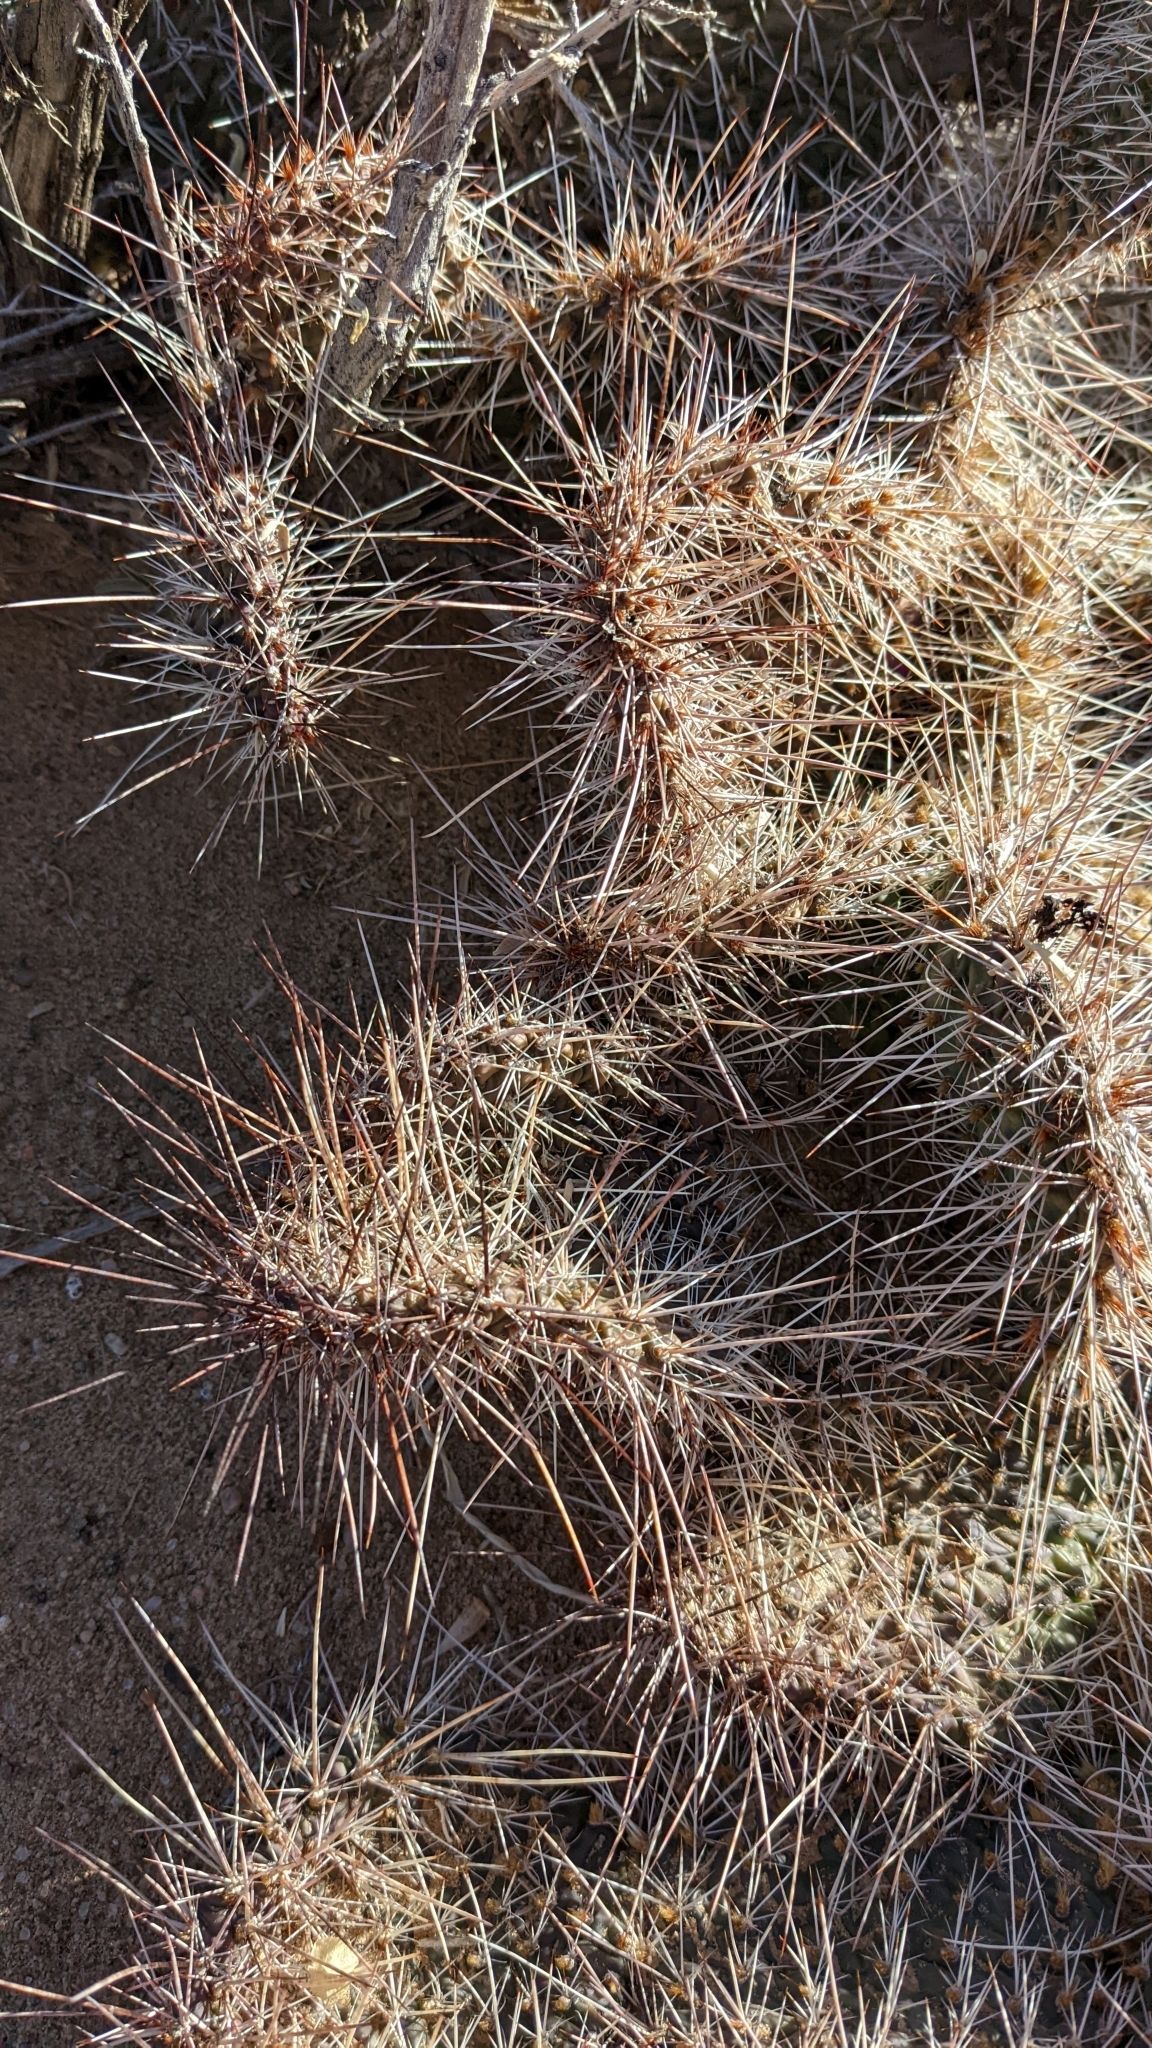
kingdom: Plantae
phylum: Tracheophyta
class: Magnoliopsida
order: Caryophyllales
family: Cactaceae
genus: Opuntia
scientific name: Opuntia polyacantha
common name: Plains prickly-pear
